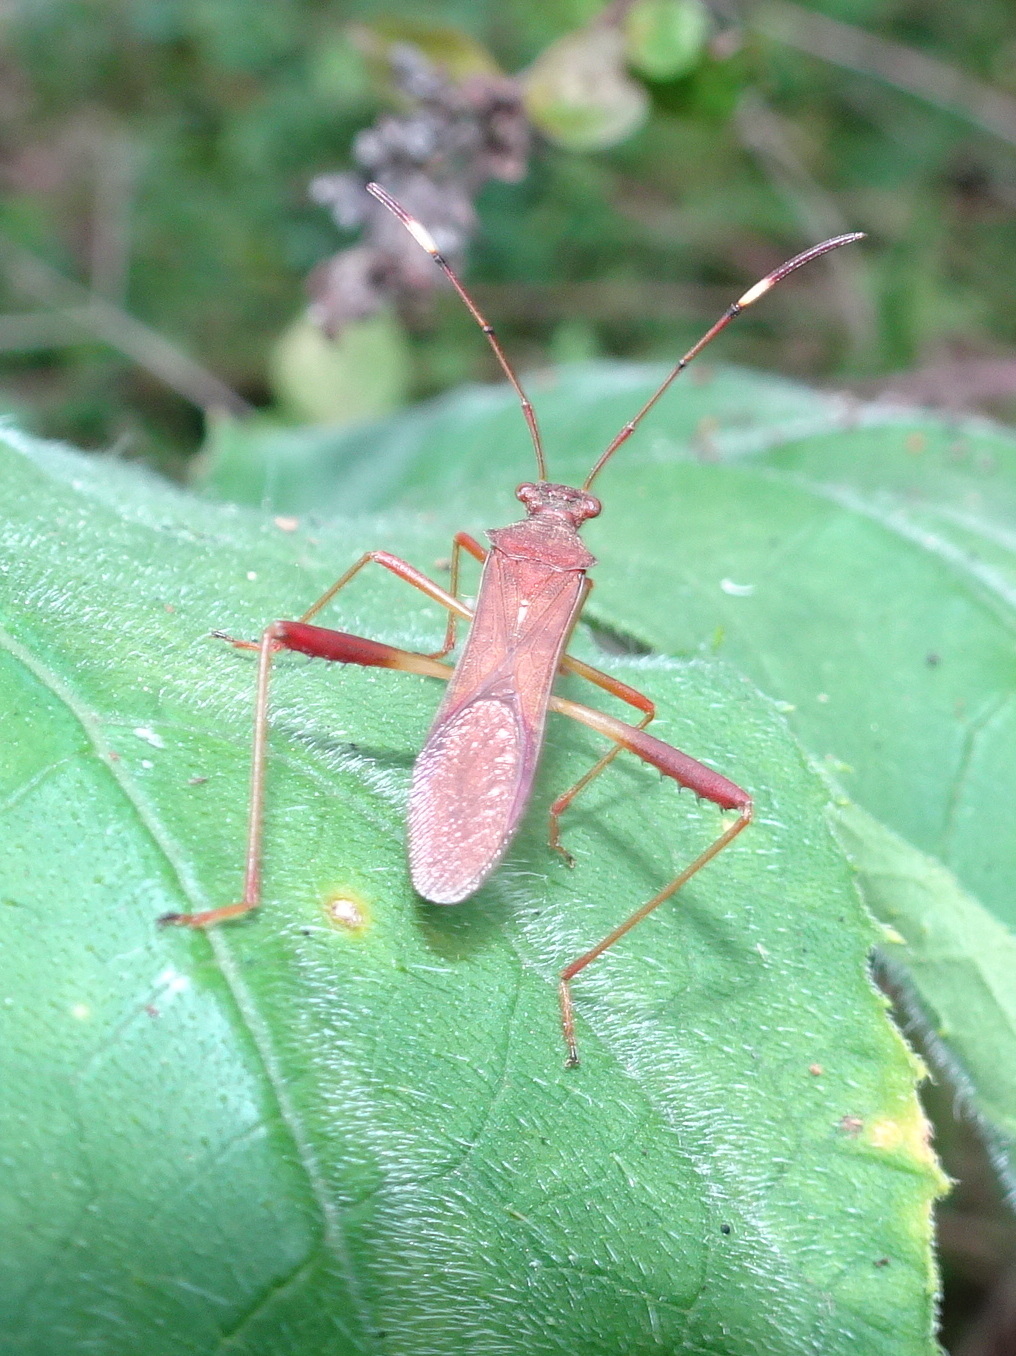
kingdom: Animalia
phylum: Arthropoda
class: Insecta
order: Hemiptera
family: Alydidae
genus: Megalotomus
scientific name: Megalotomus quinquespinosus
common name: Lupine bug
